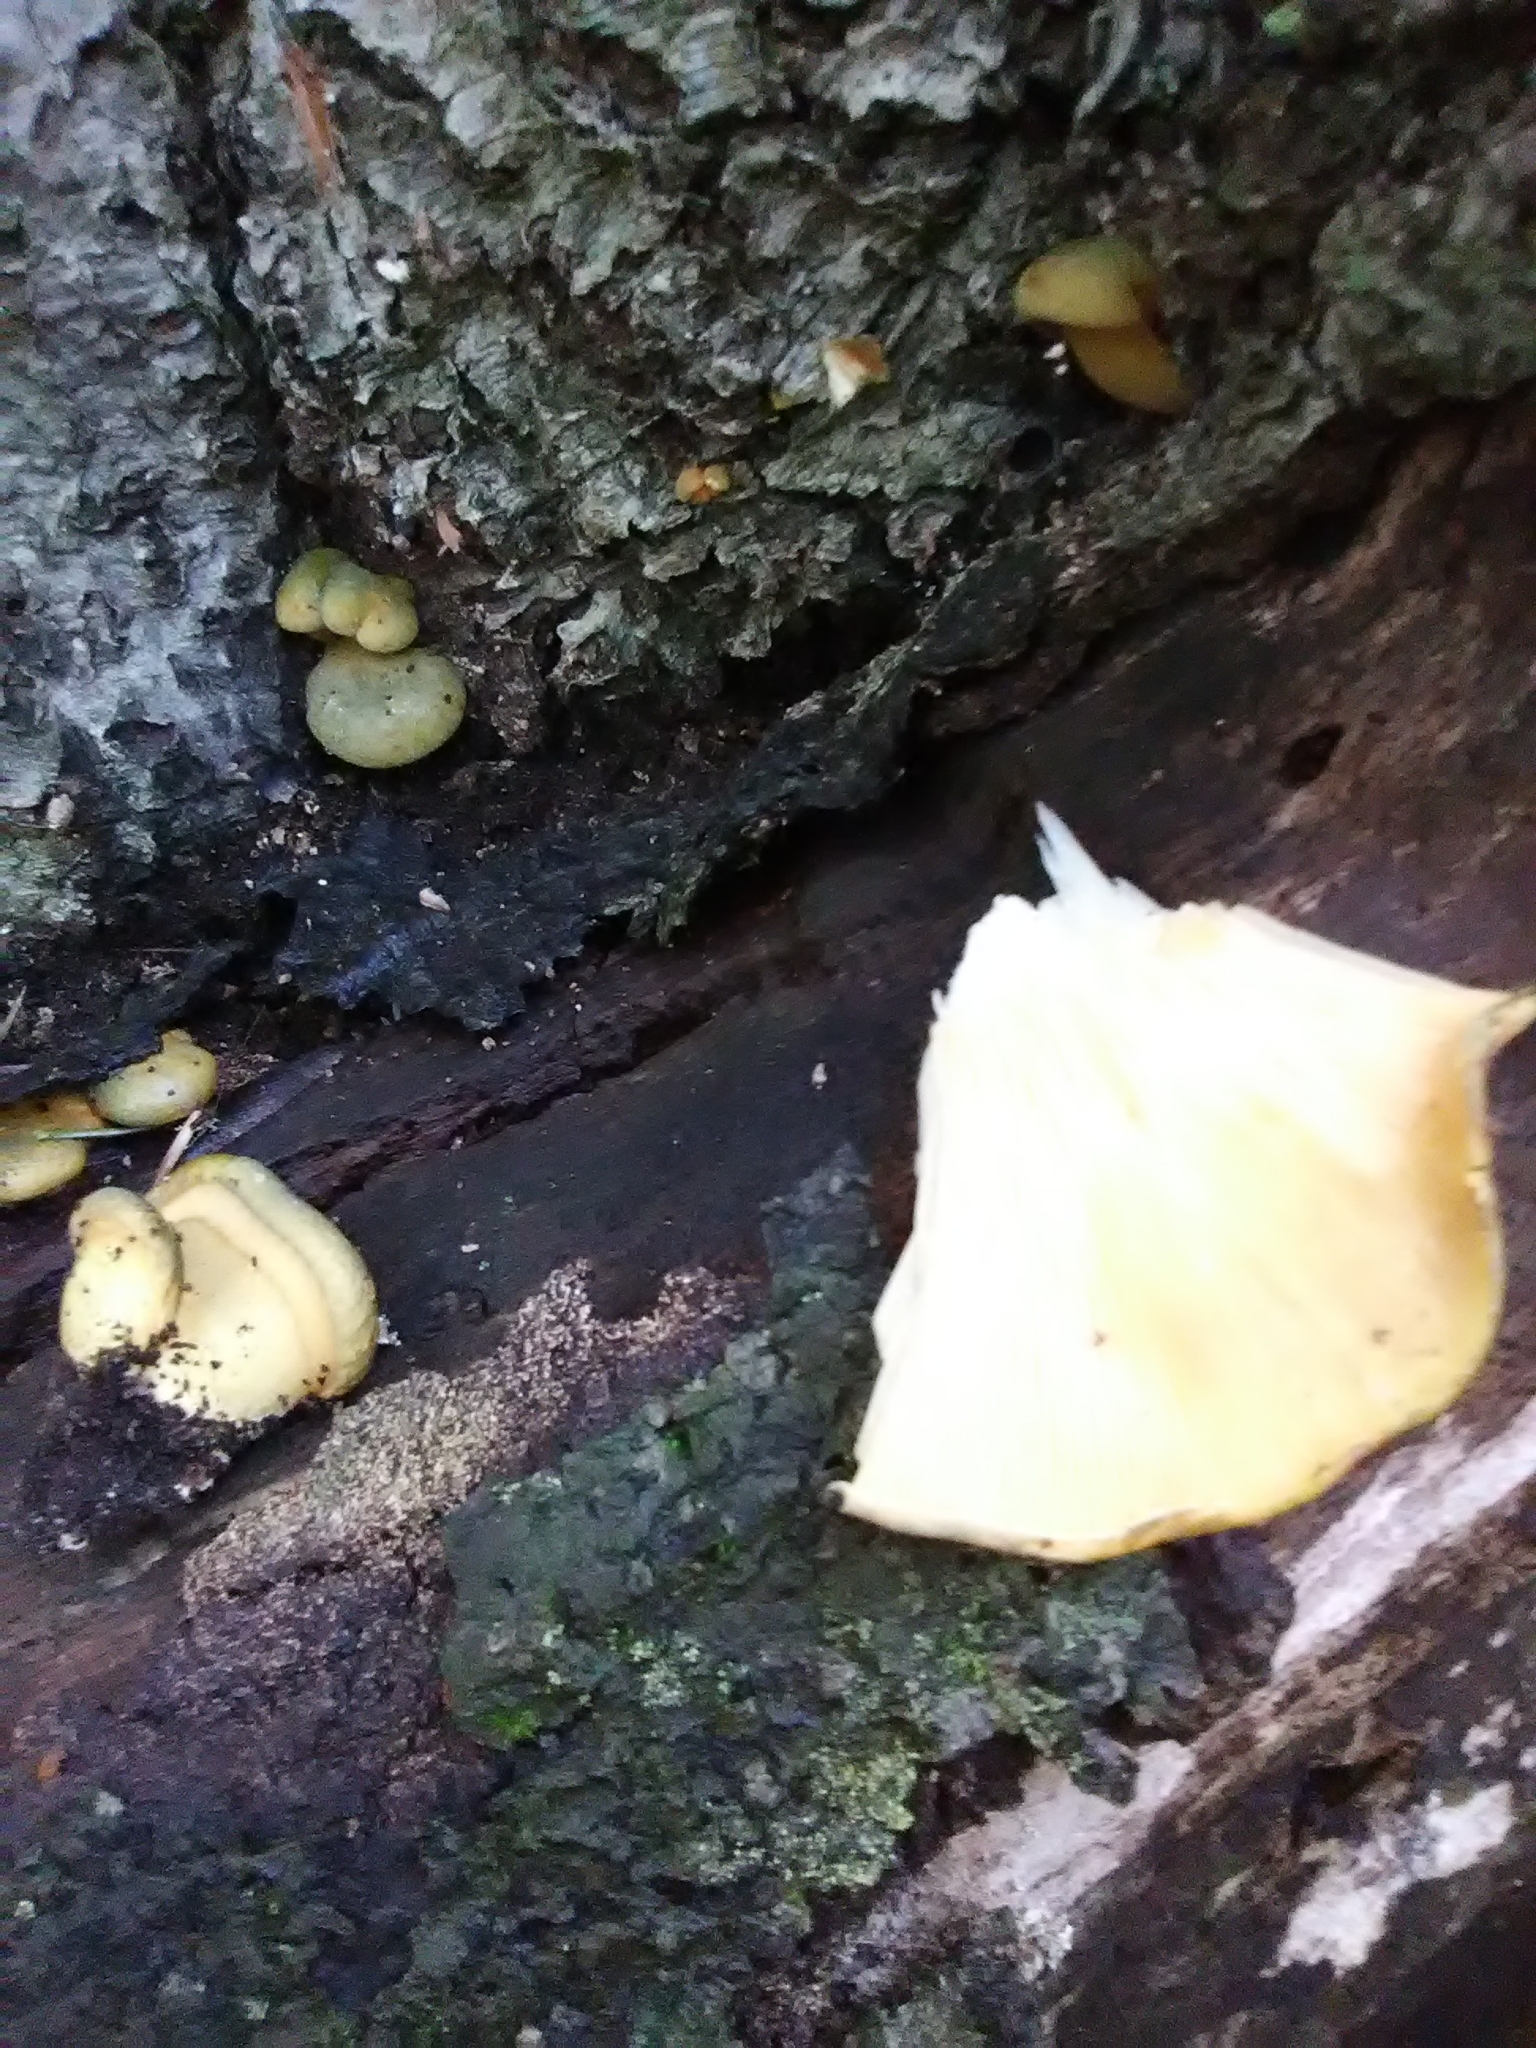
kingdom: Fungi
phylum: Basidiomycota
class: Agaricomycetes
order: Agaricales
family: Sarcomyxaceae
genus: Sarcomyxa
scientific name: Sarcomyxa serotina
